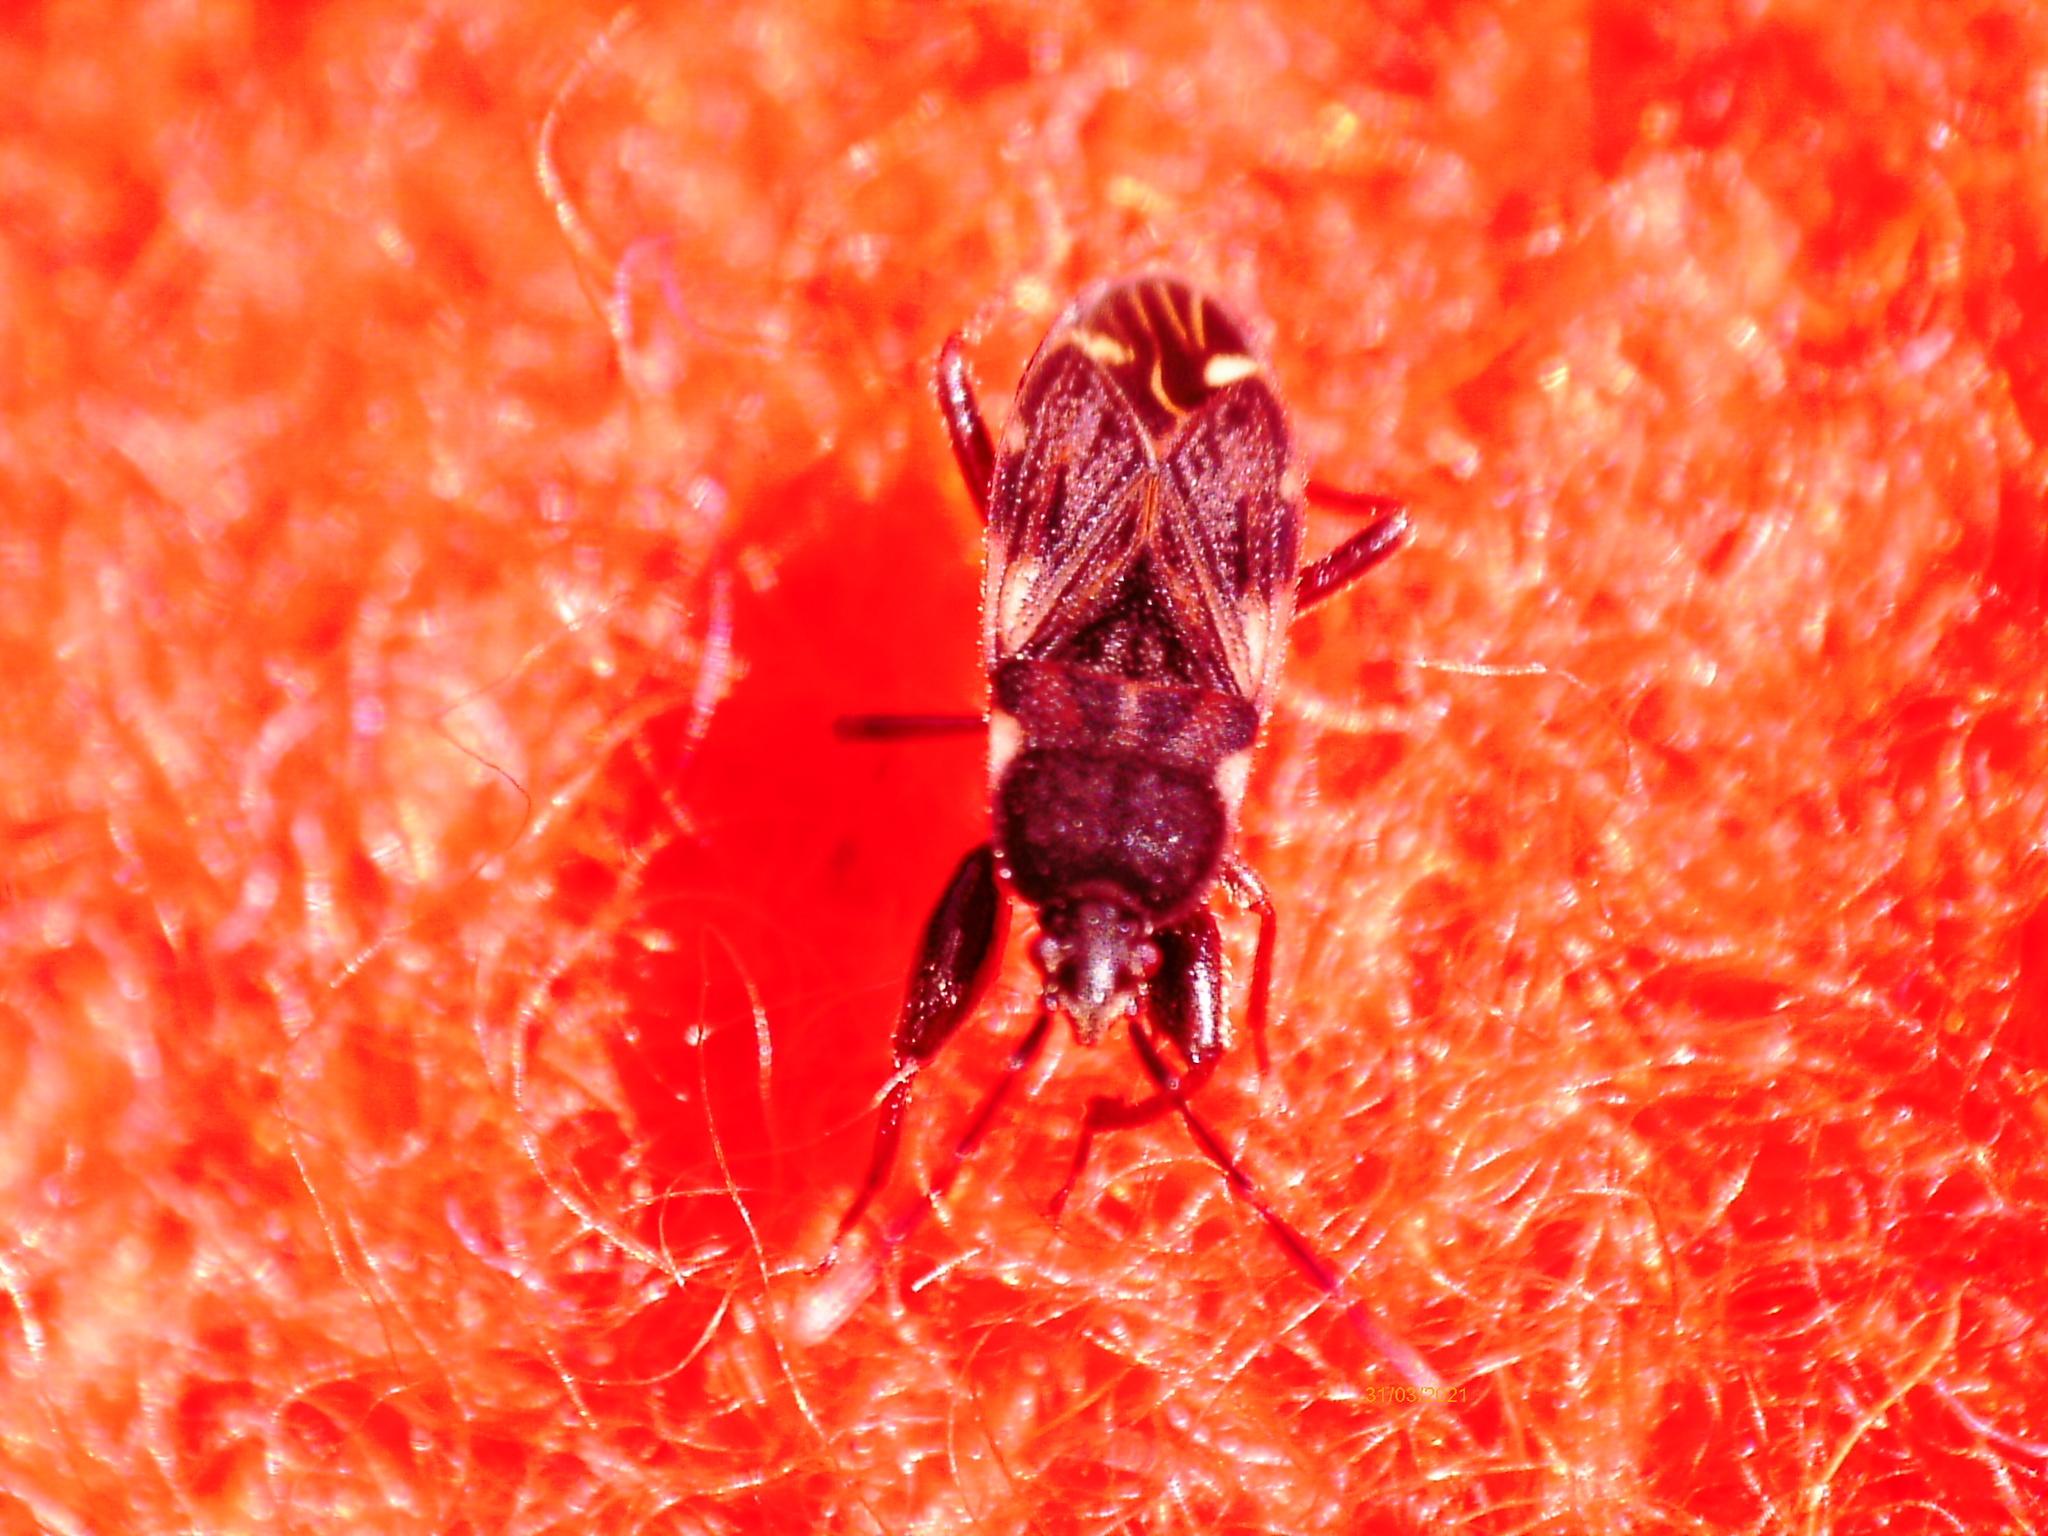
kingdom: Animalia
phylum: Arthropoda
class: Insecta
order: Hemiptera
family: Rhyparochromidae
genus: Eremocoris
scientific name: Eremocoris podagricus
